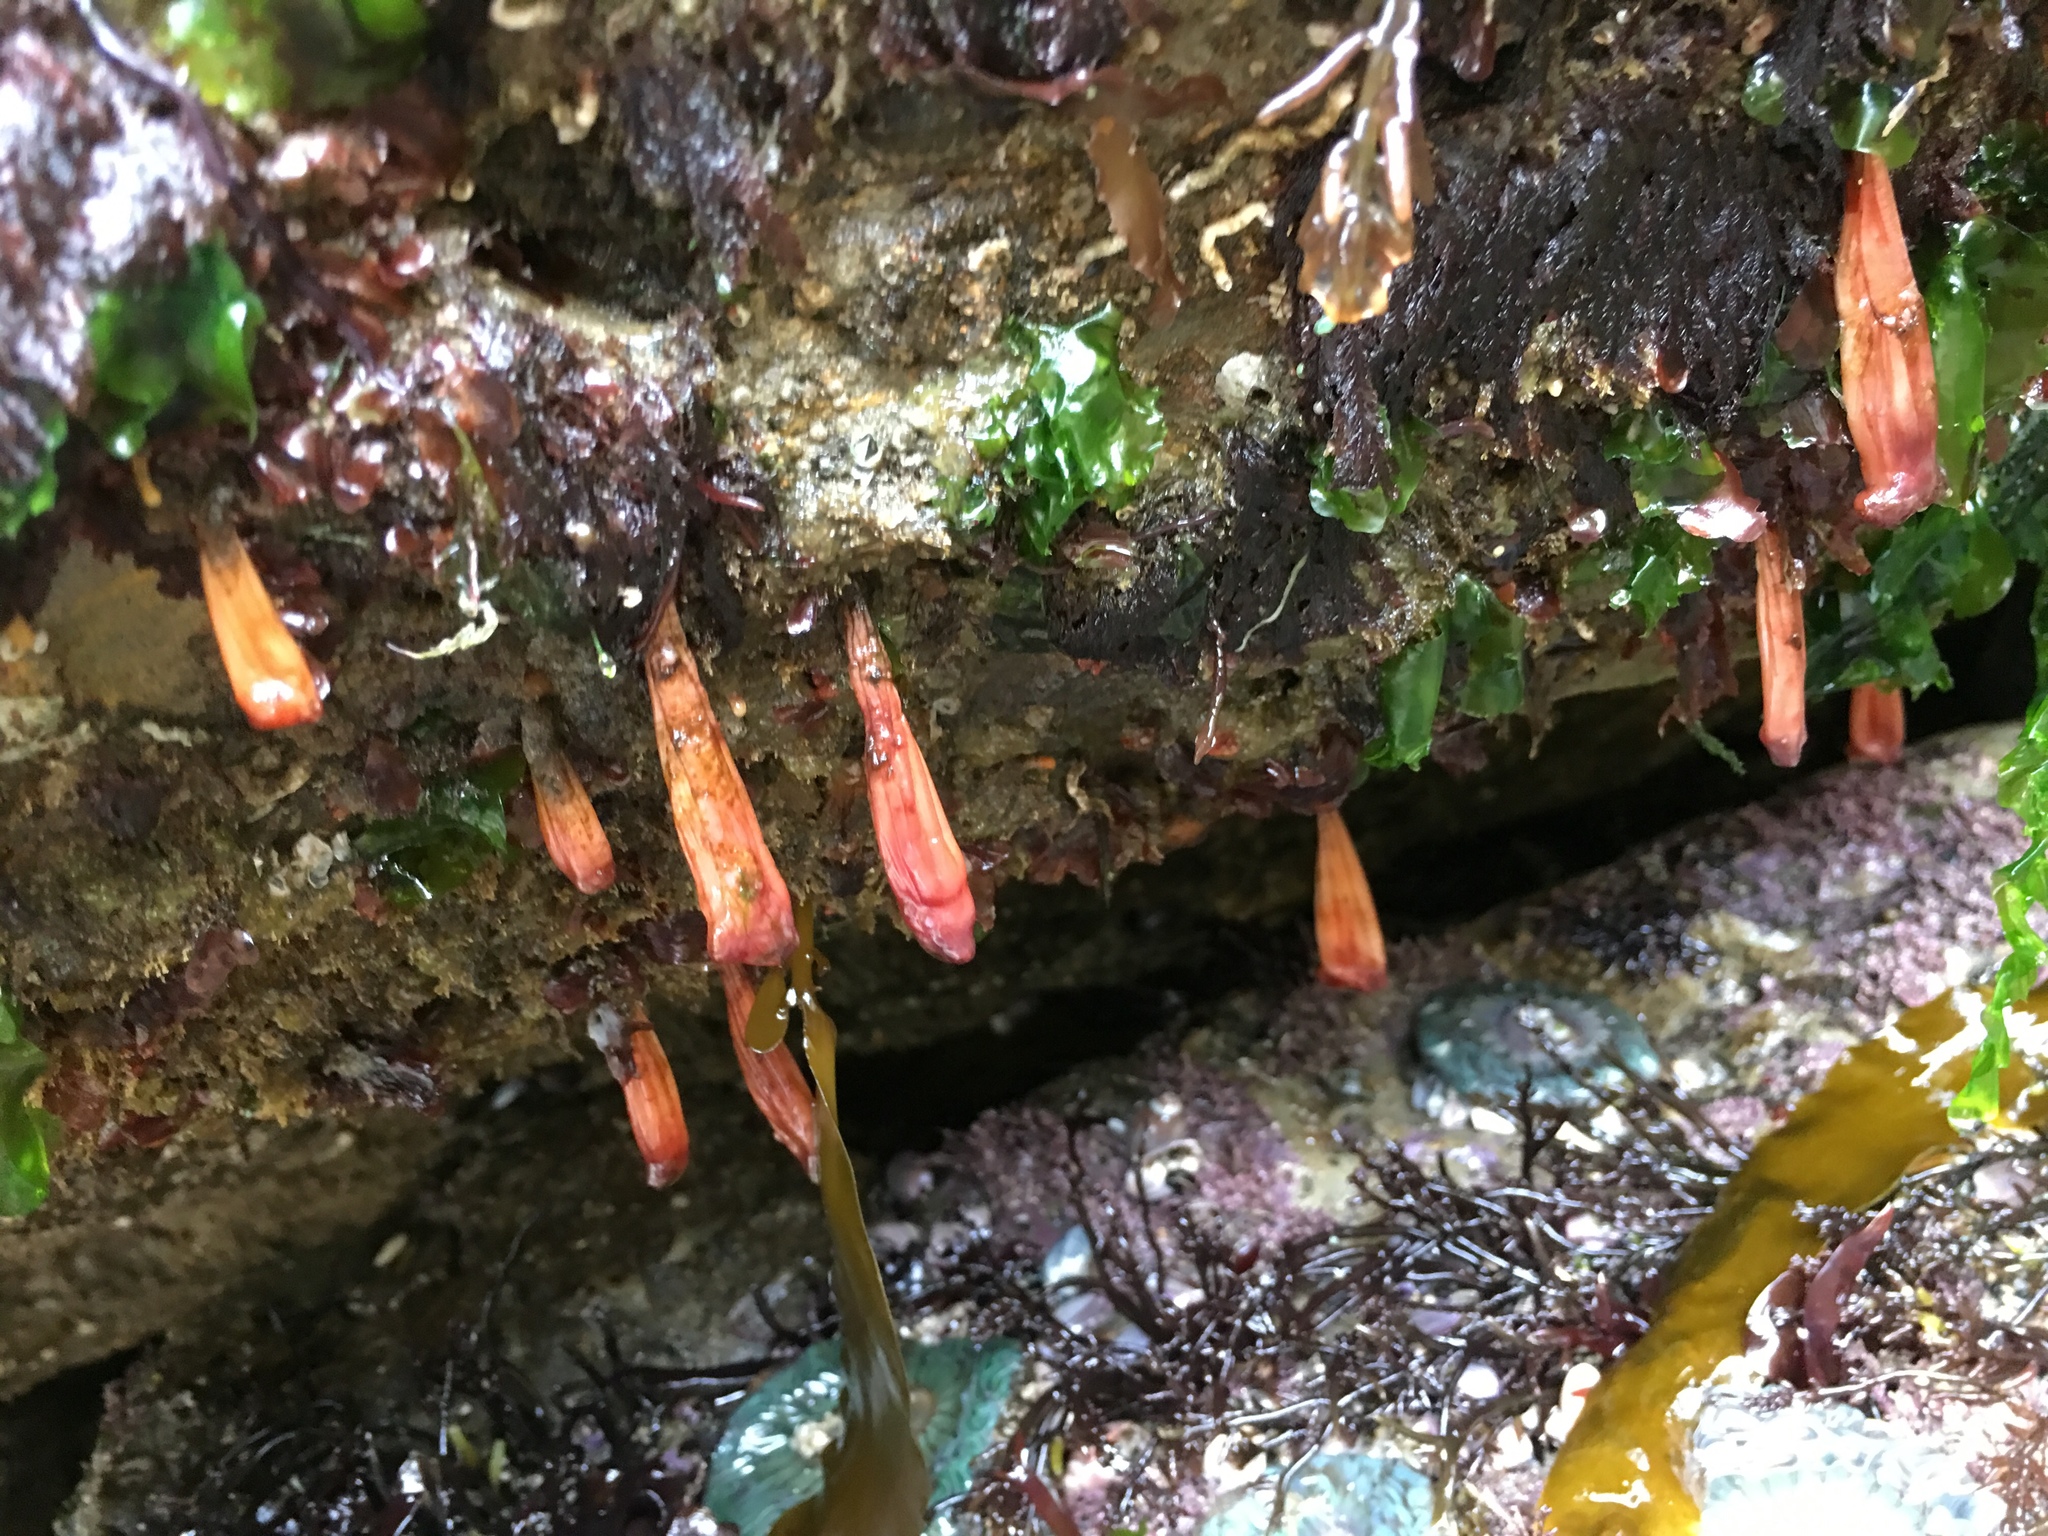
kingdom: Animalia
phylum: Chordata
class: Ascidiacea
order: Stolidobranchia
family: Styelidae
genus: Styela
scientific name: Styela montereyensis
